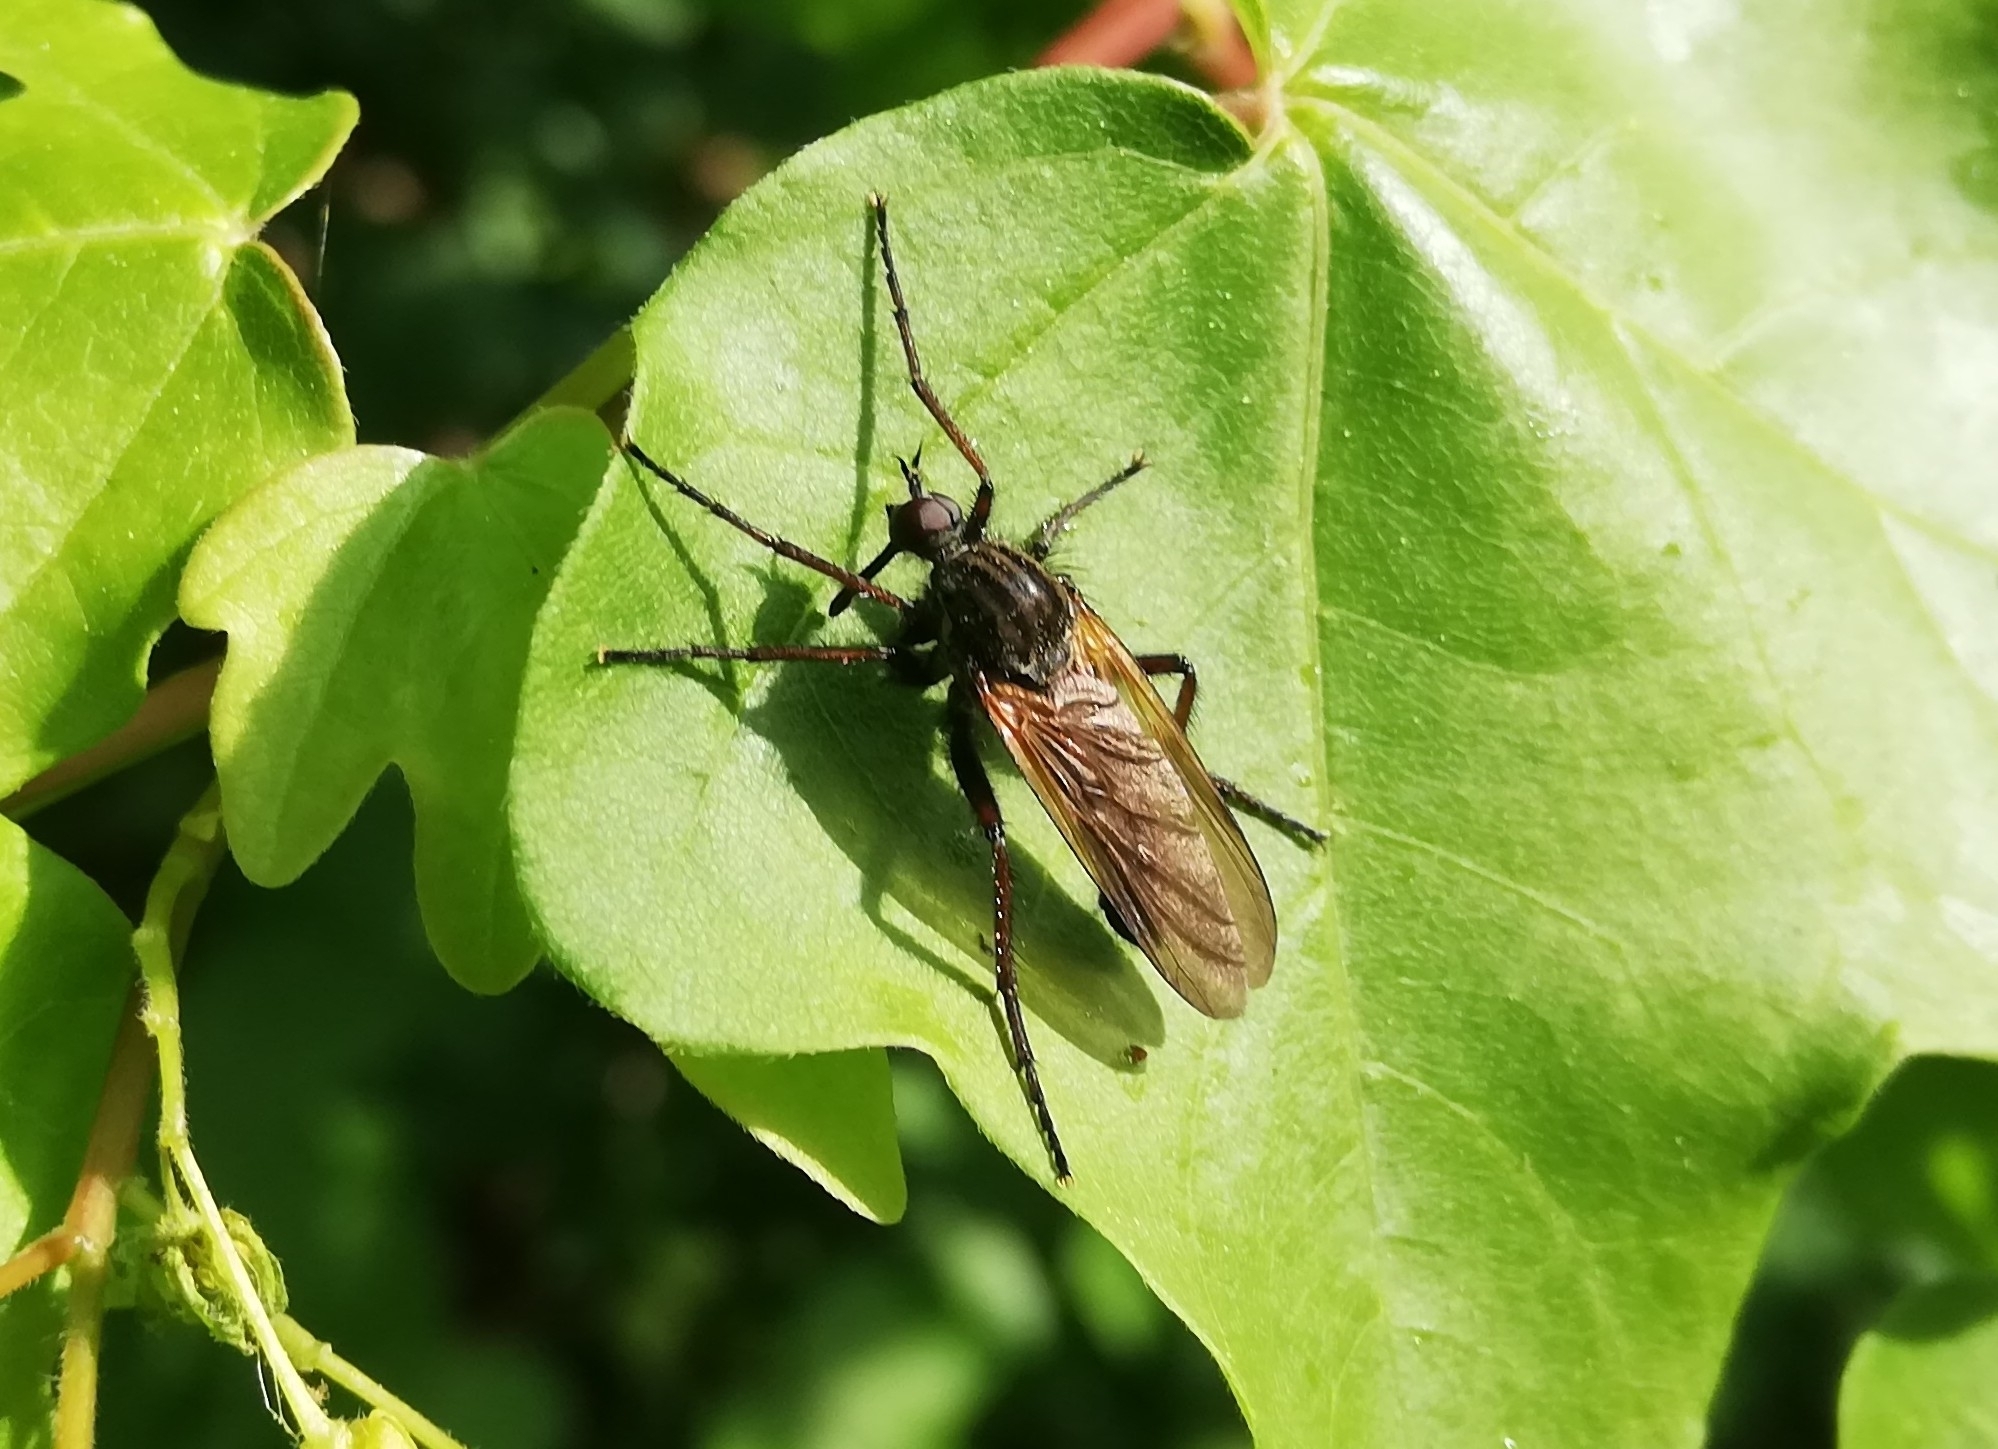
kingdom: Animalia
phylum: Arthropoda
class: Insecta
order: Diptera
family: Empididae
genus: Empis
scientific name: Empis tessellata
